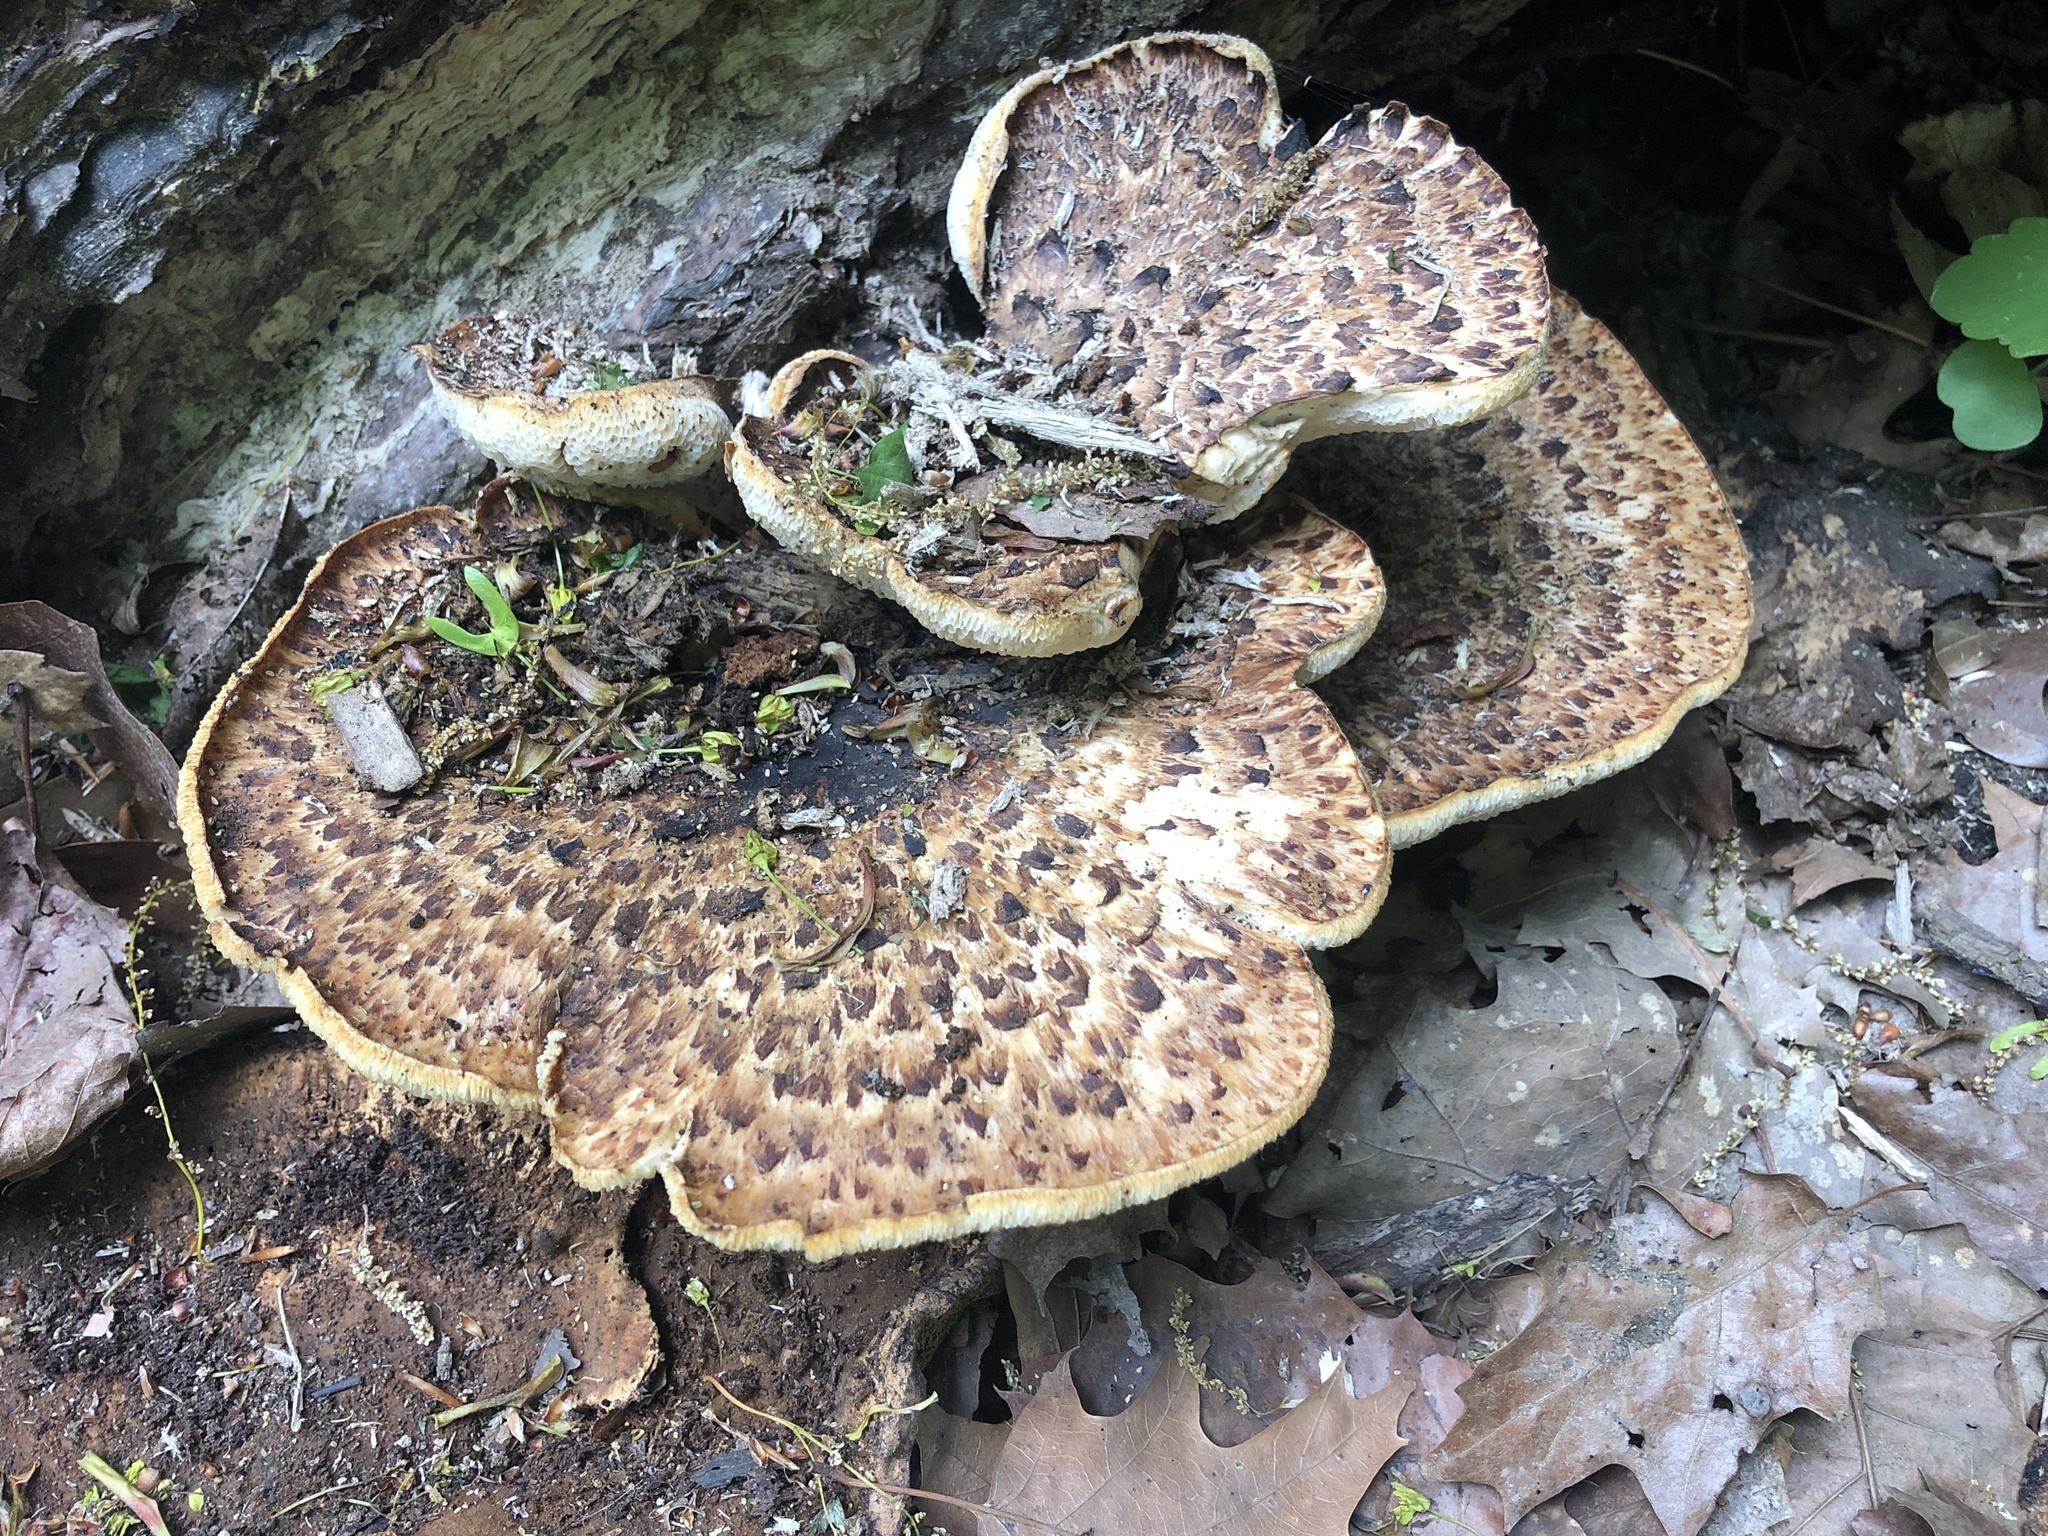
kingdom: Fungi
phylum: Basidiomycota
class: Agaricomycetes
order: Polyporales
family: Polyporaceae
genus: Cerioporus
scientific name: Cerioporus squamosus
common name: Dryad's saddle
